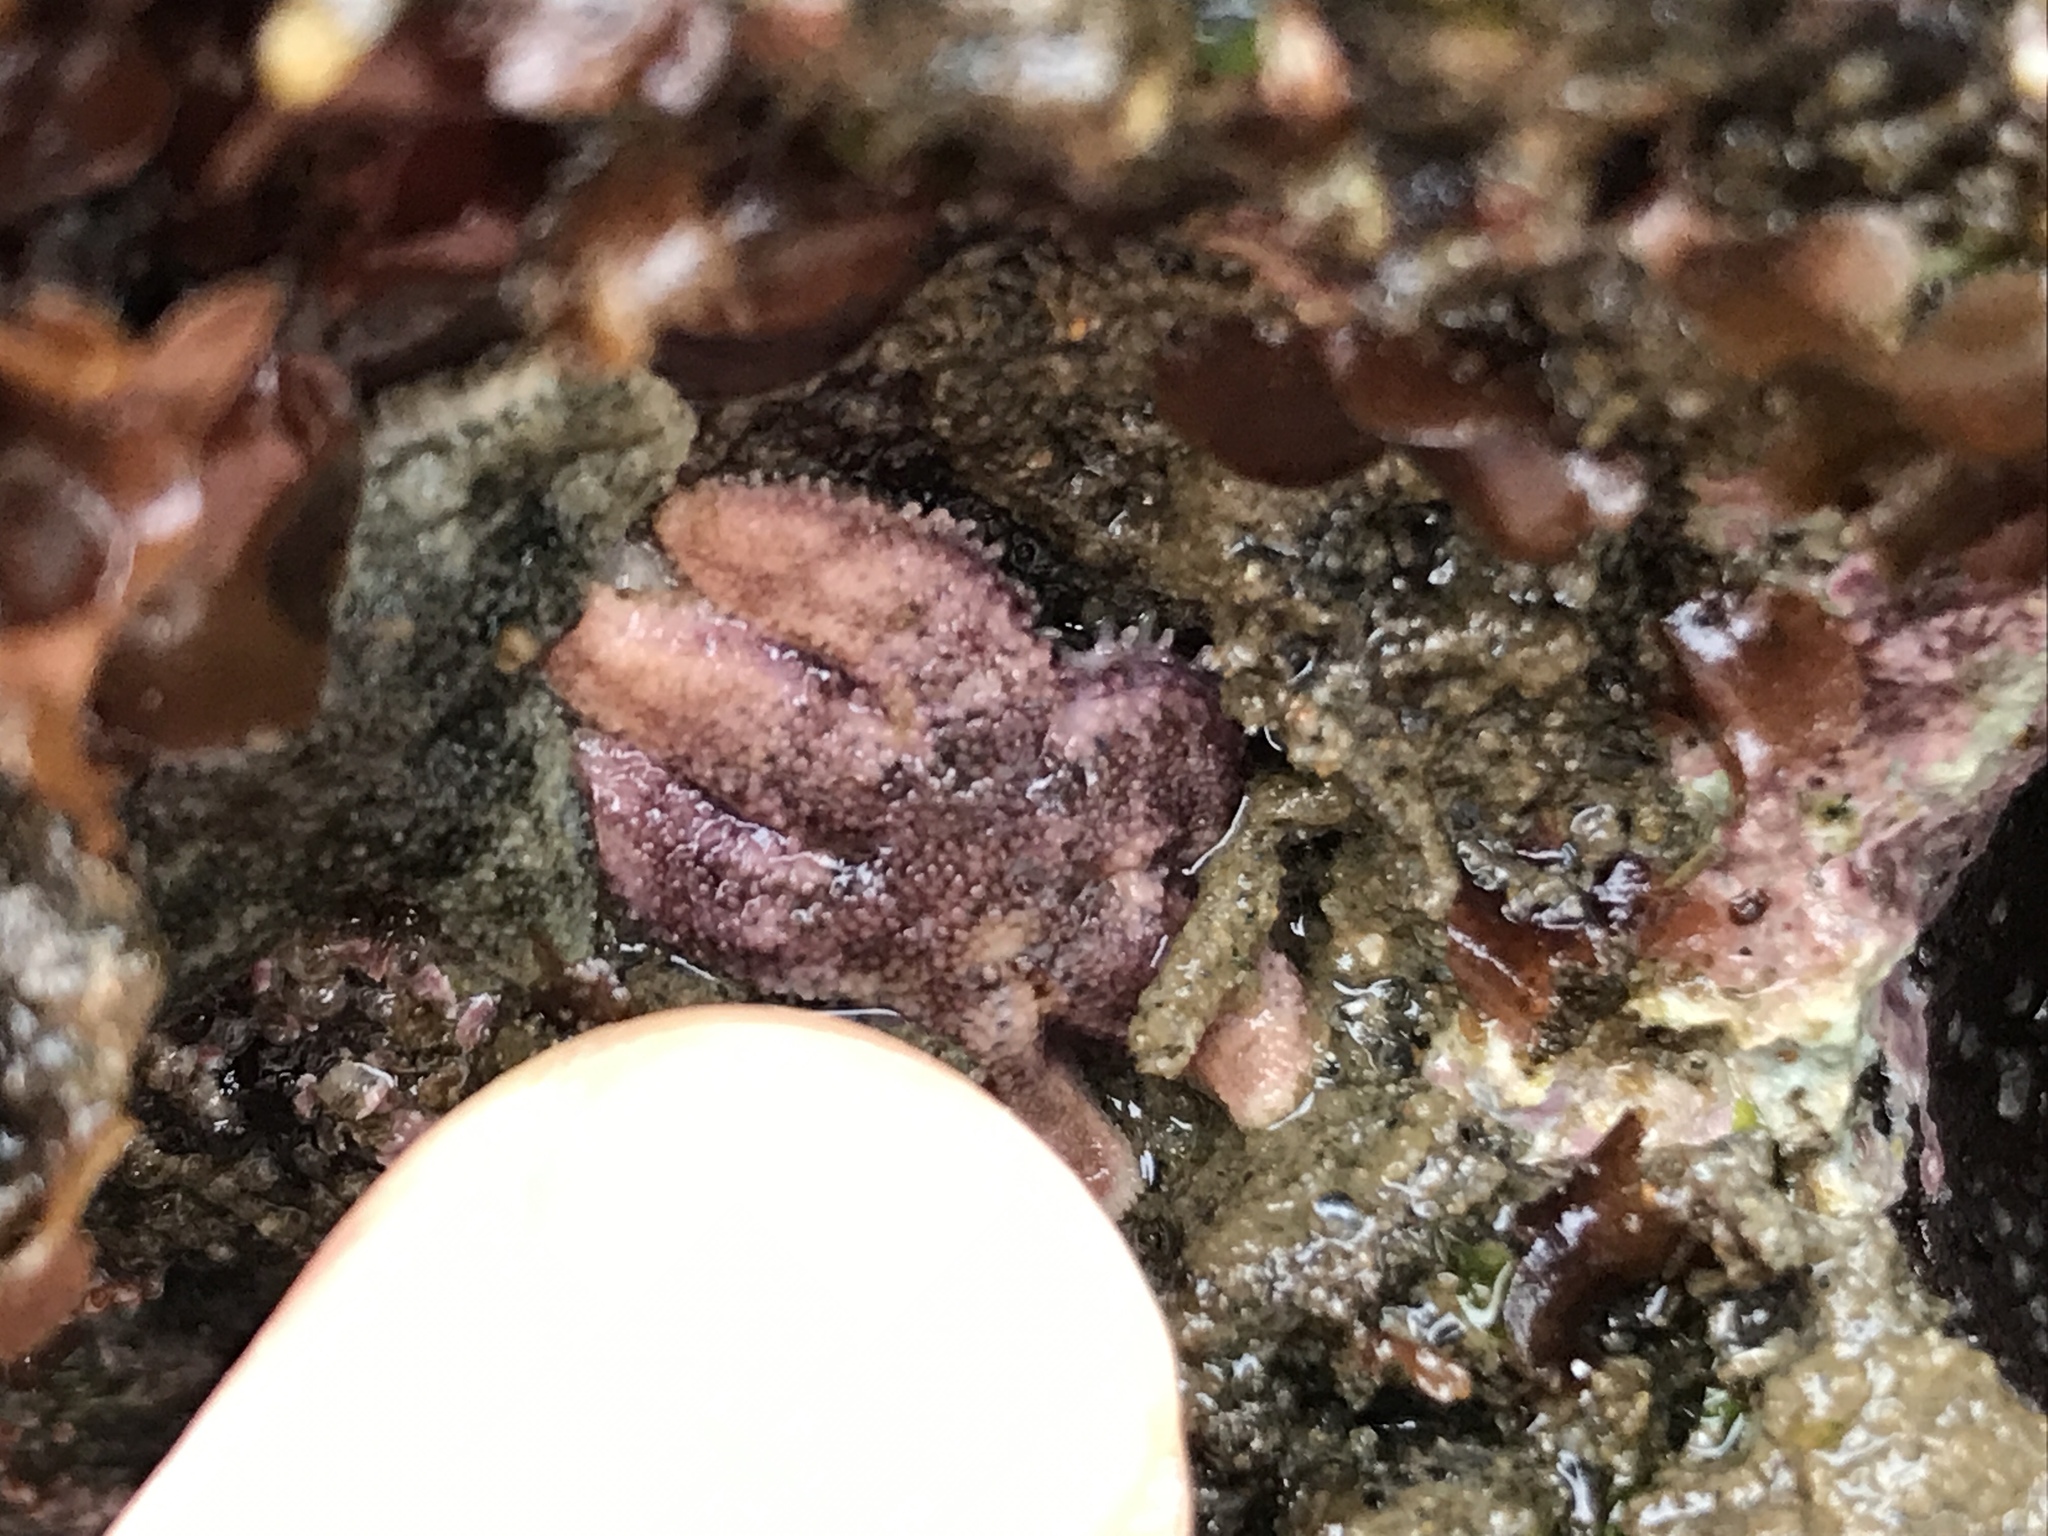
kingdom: Animalia
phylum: Echinodermata
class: Asteroidea
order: Forcipulatida
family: Asteriidae
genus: Leptasterias
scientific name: Leptasterias hexactis
